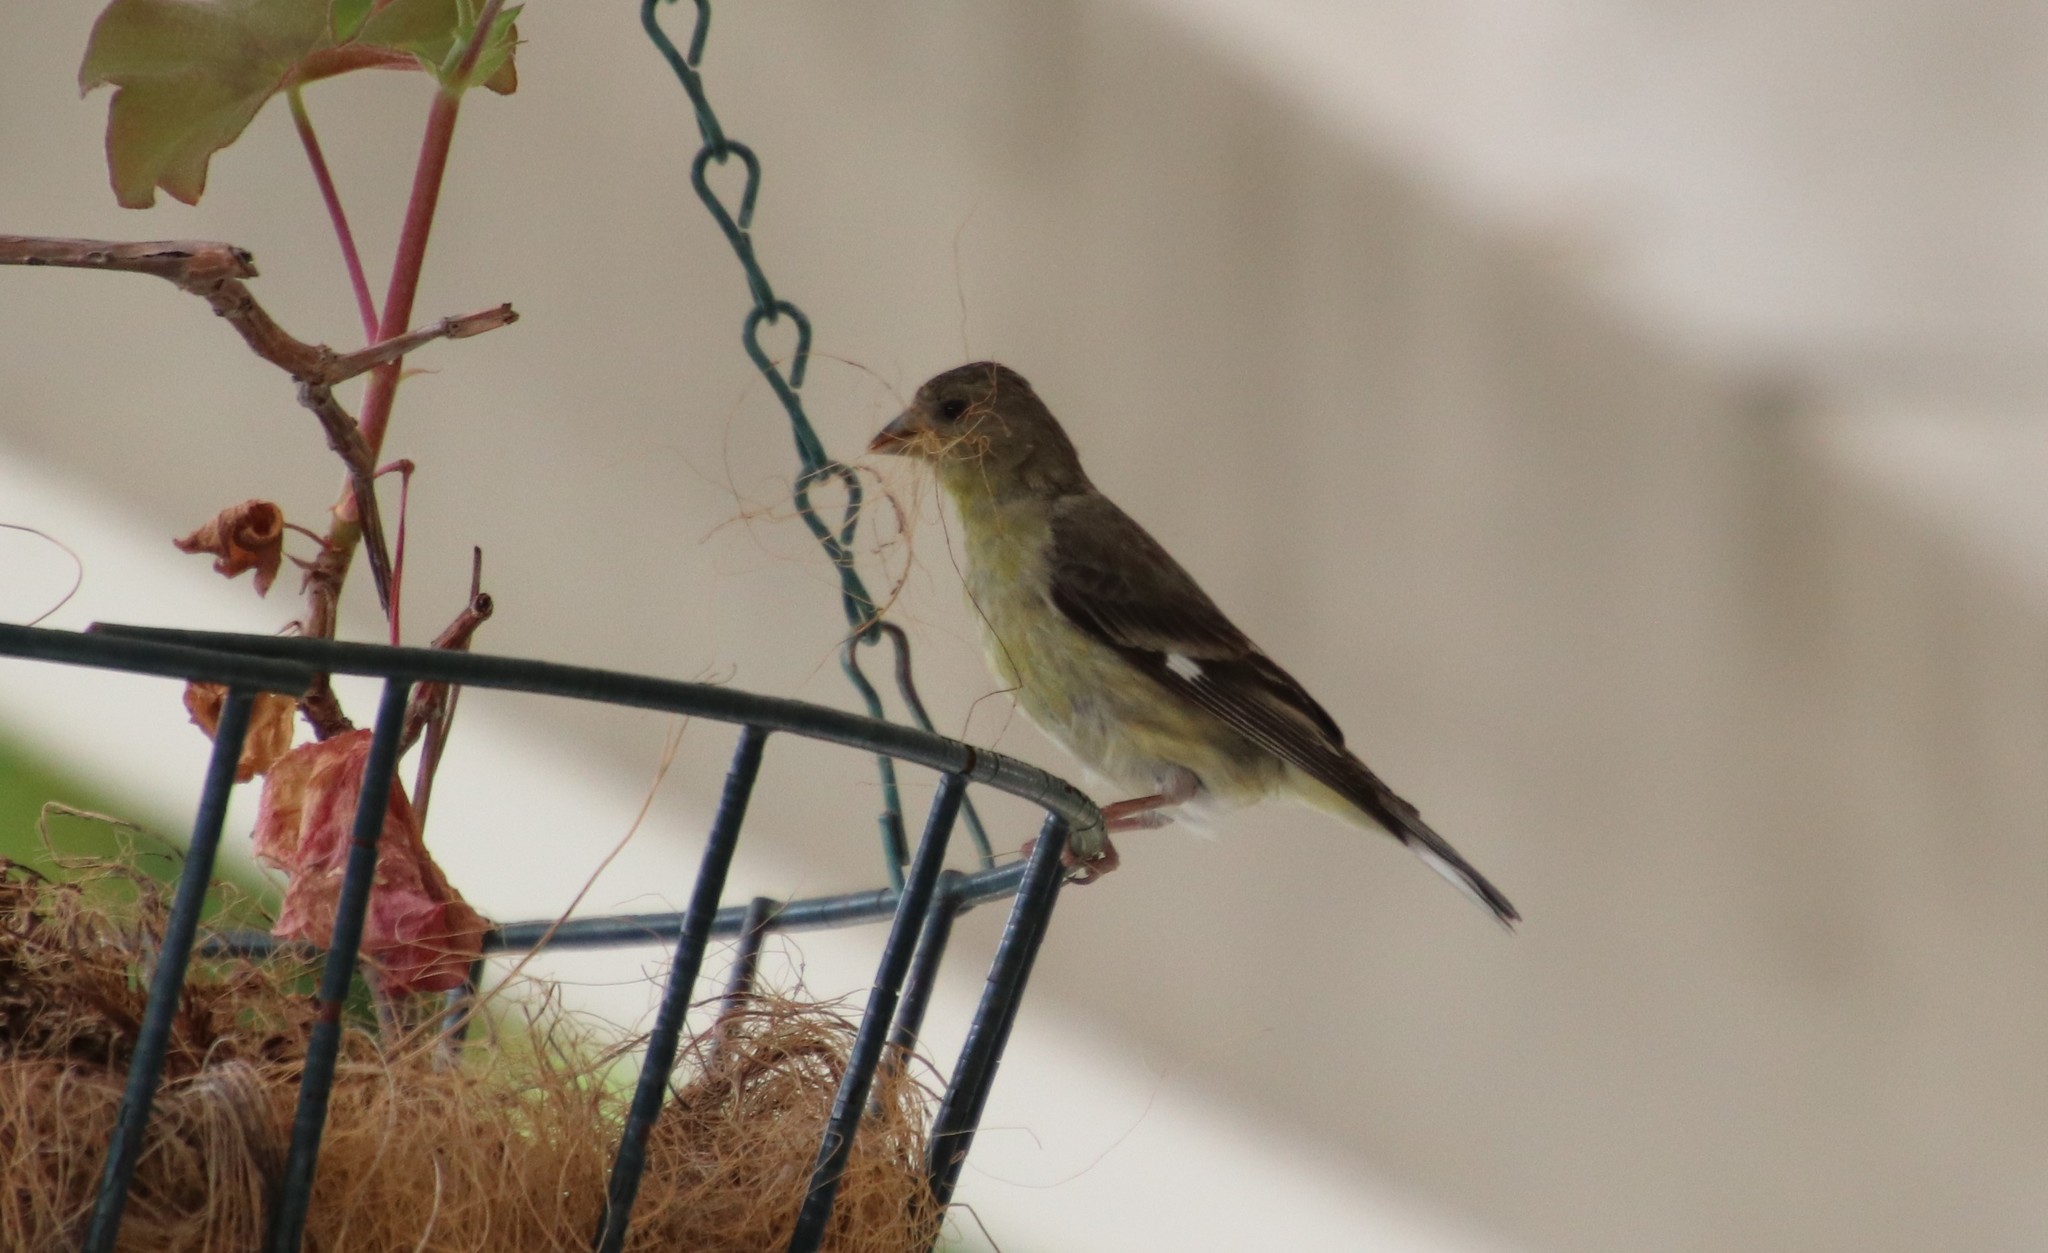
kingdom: Animalia
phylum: Chordata
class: Aves
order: Passeriformes
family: Fringillidae
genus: Spinus
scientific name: Spinus psaltria
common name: Lesser goldfinch
